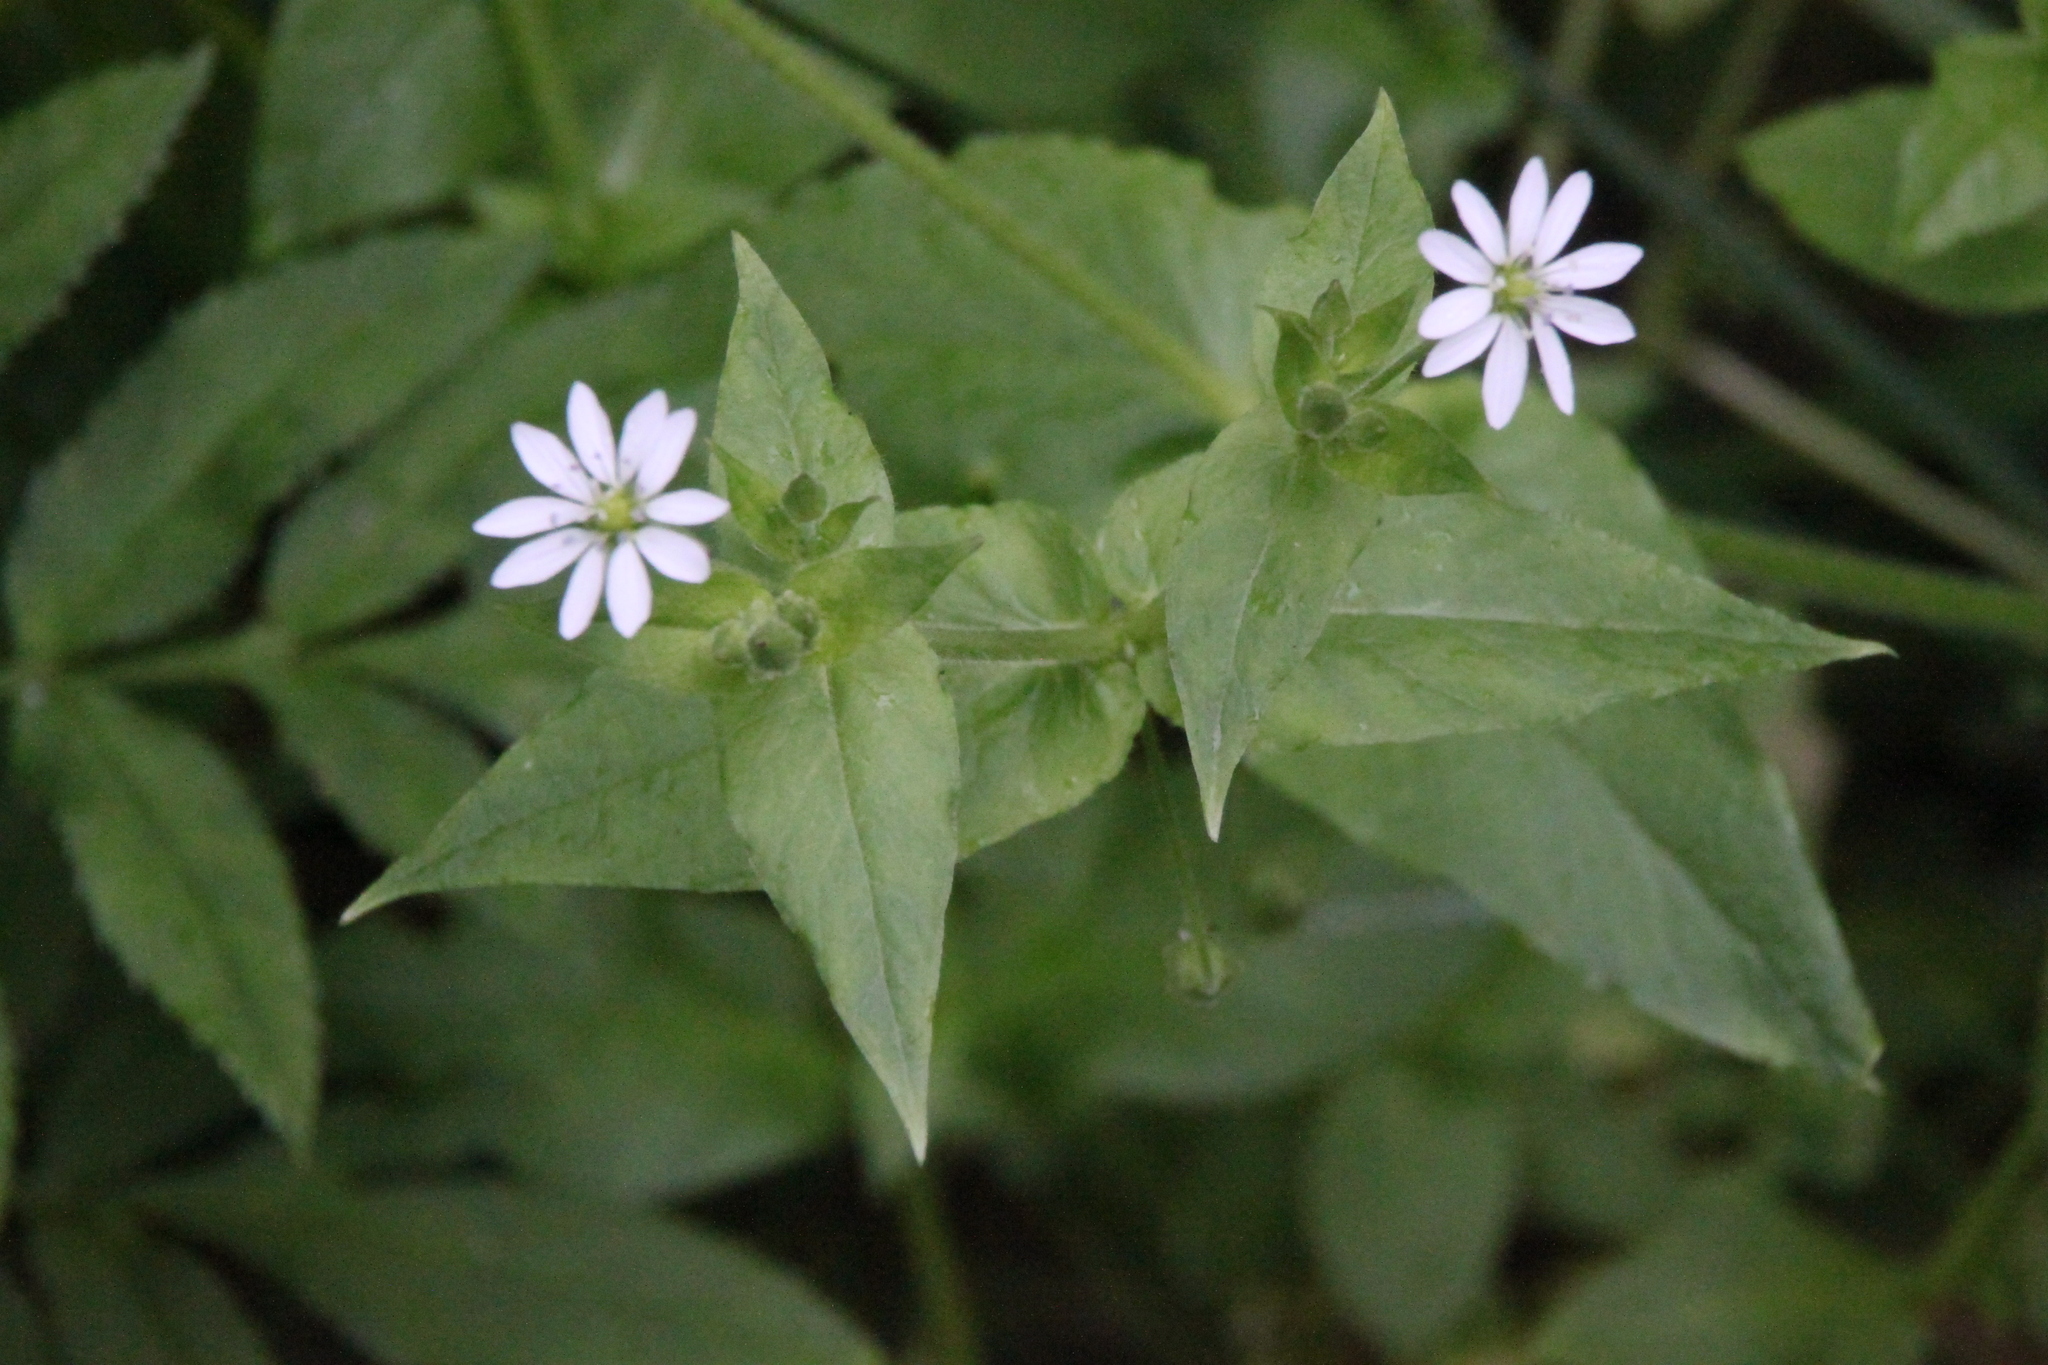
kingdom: Plantae
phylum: Tracheophyta
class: Magnoliopsida
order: Caryophyllales
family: Caryophyllaceae
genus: Stellaria
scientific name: Stellaria aquatica
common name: Water chickweed
